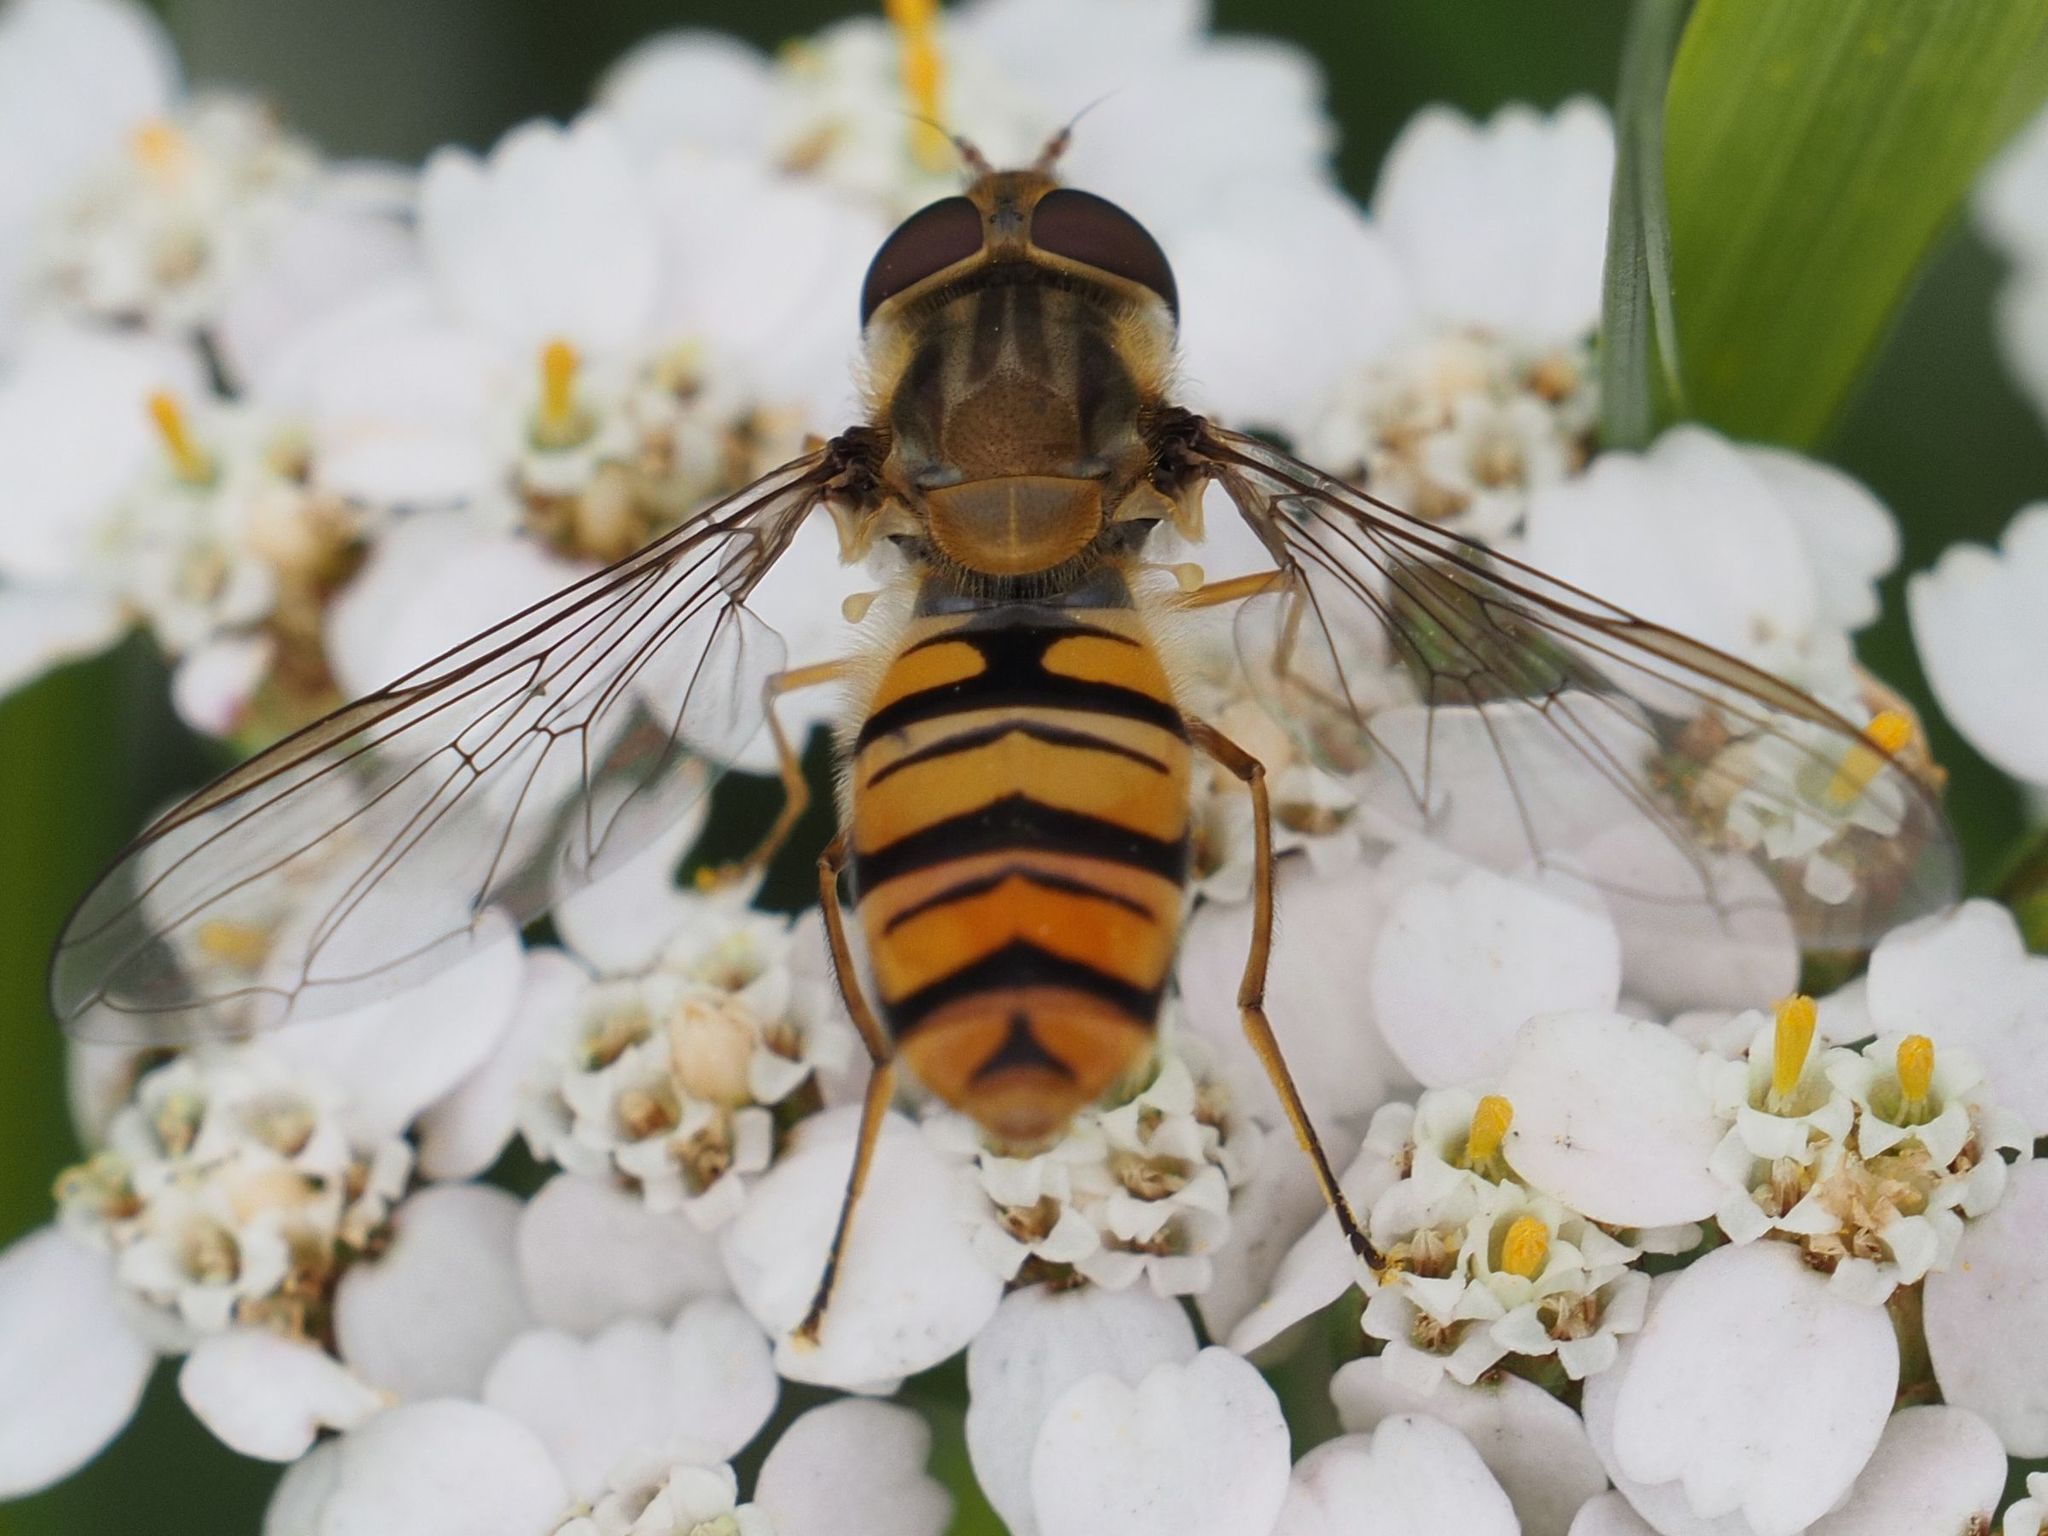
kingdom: Animalia
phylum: Arthropoda
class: Insecta
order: Diptera
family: Syrphidae
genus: Episyrphus
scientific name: Episyrphus balteatus
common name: Marmalade hoverfly
